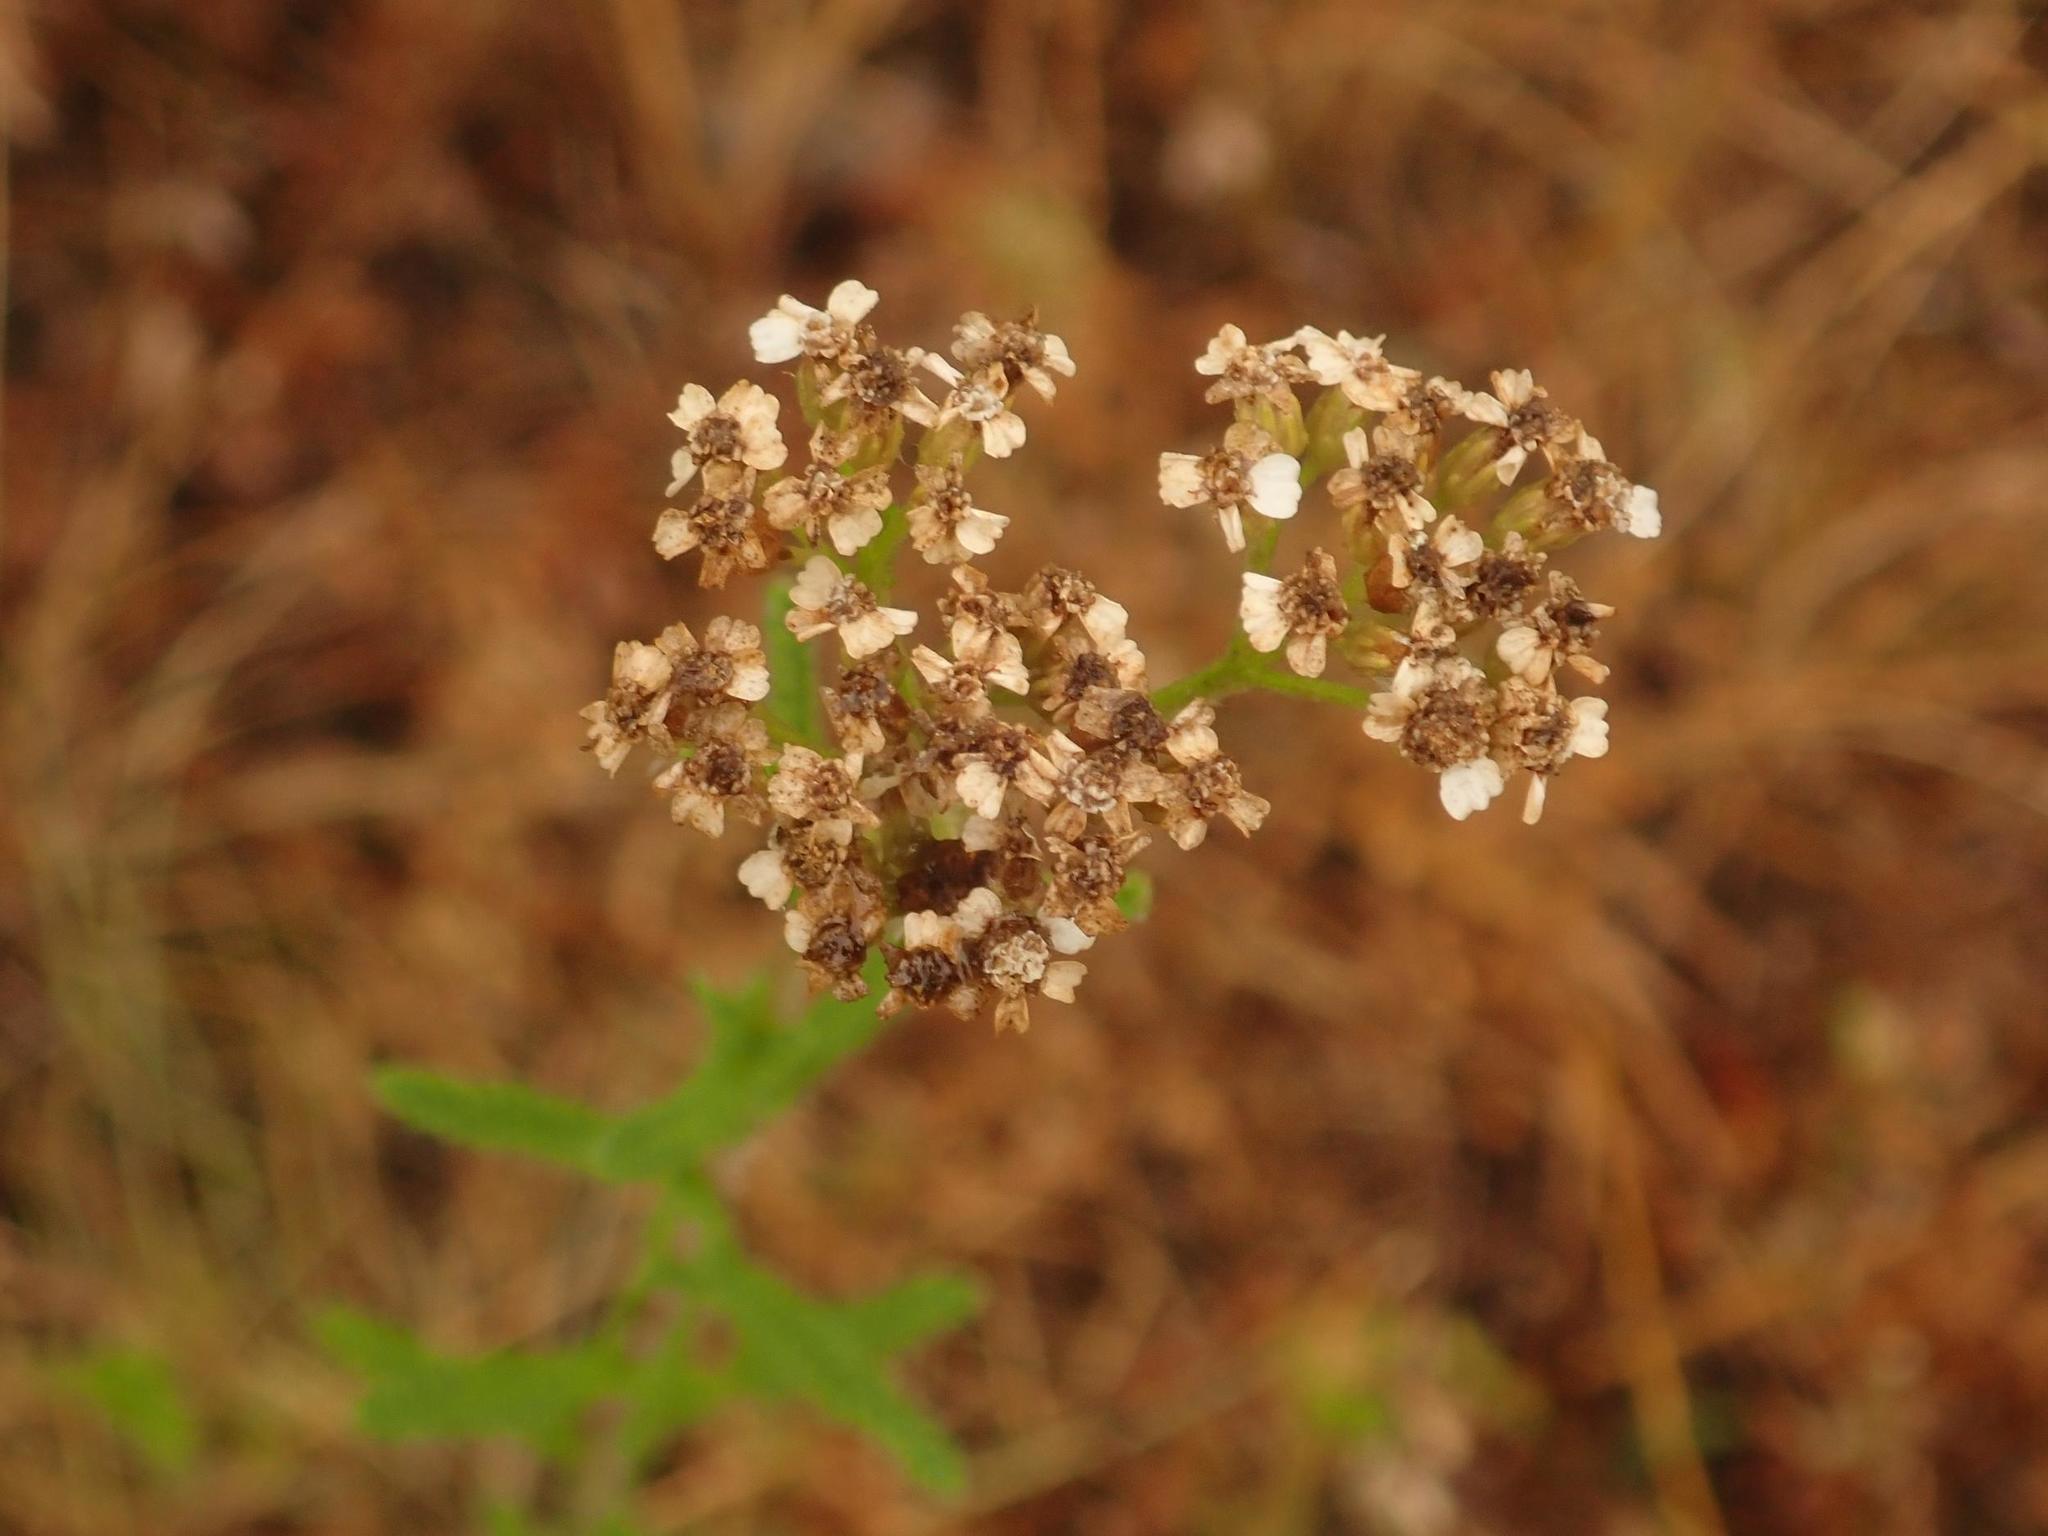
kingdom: Plantae
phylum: Tracheophyta
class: Magnoliopsida
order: Asterales
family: Asteraceae
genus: Achillea
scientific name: Achillea millefolium
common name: Yarrow
